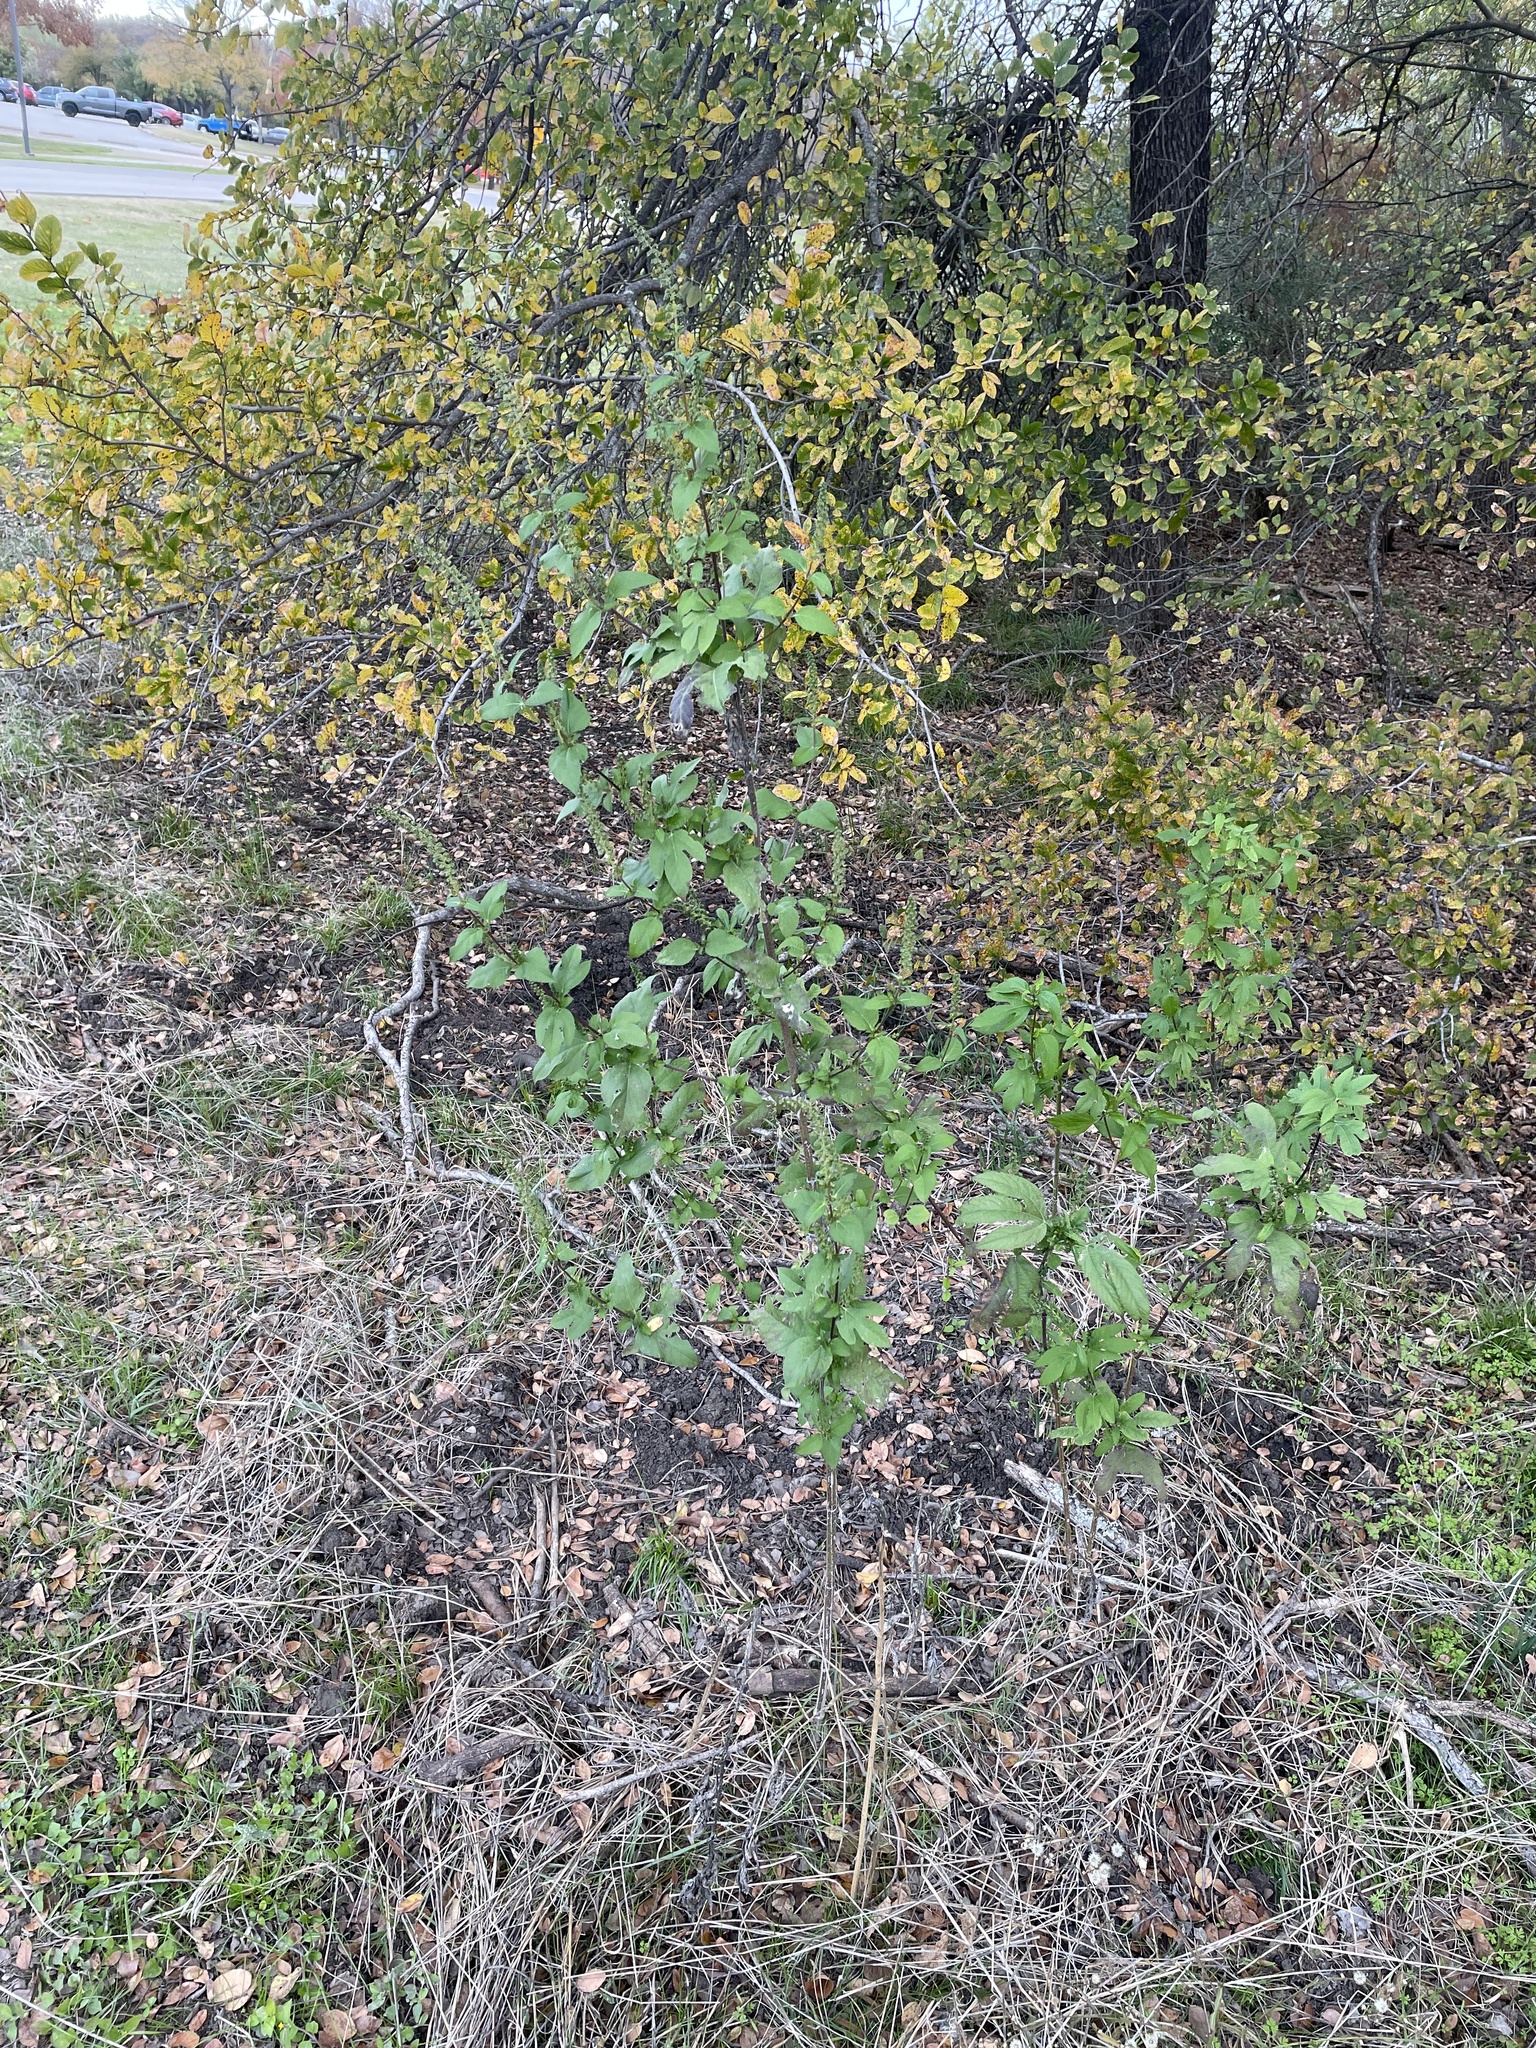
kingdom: Plantae
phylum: Tracheophyta
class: Magnoliopsida
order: Asterales
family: Asteraceae
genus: Ambrosia
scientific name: Ambrosia trifida
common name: Giant ragweed
